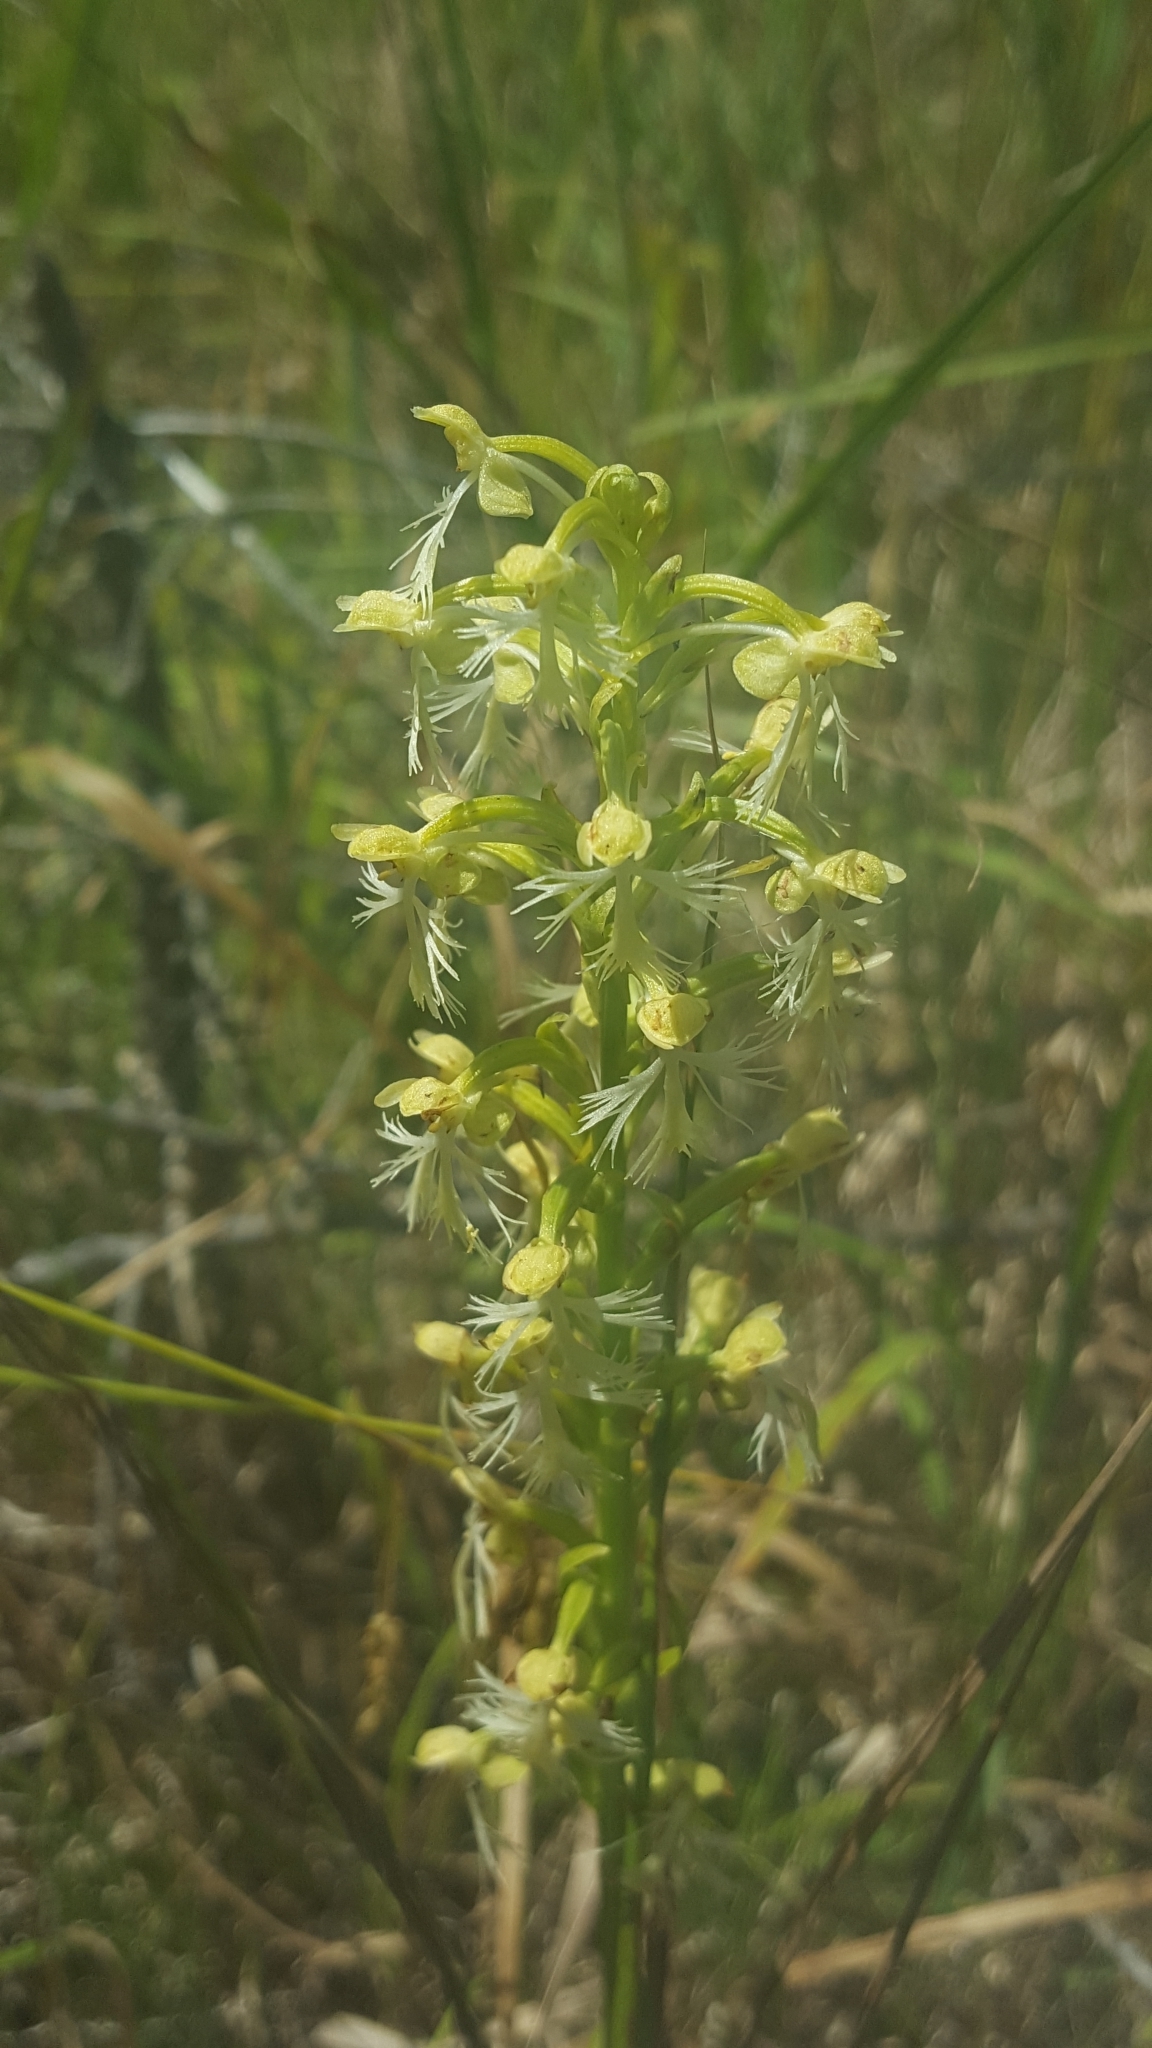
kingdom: Plantae
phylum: Tracheophyta
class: Liliopsida
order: Asparagales
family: Orchidaceae
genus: Platanthera
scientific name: Platanthera lacera
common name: Green fringed orchid
